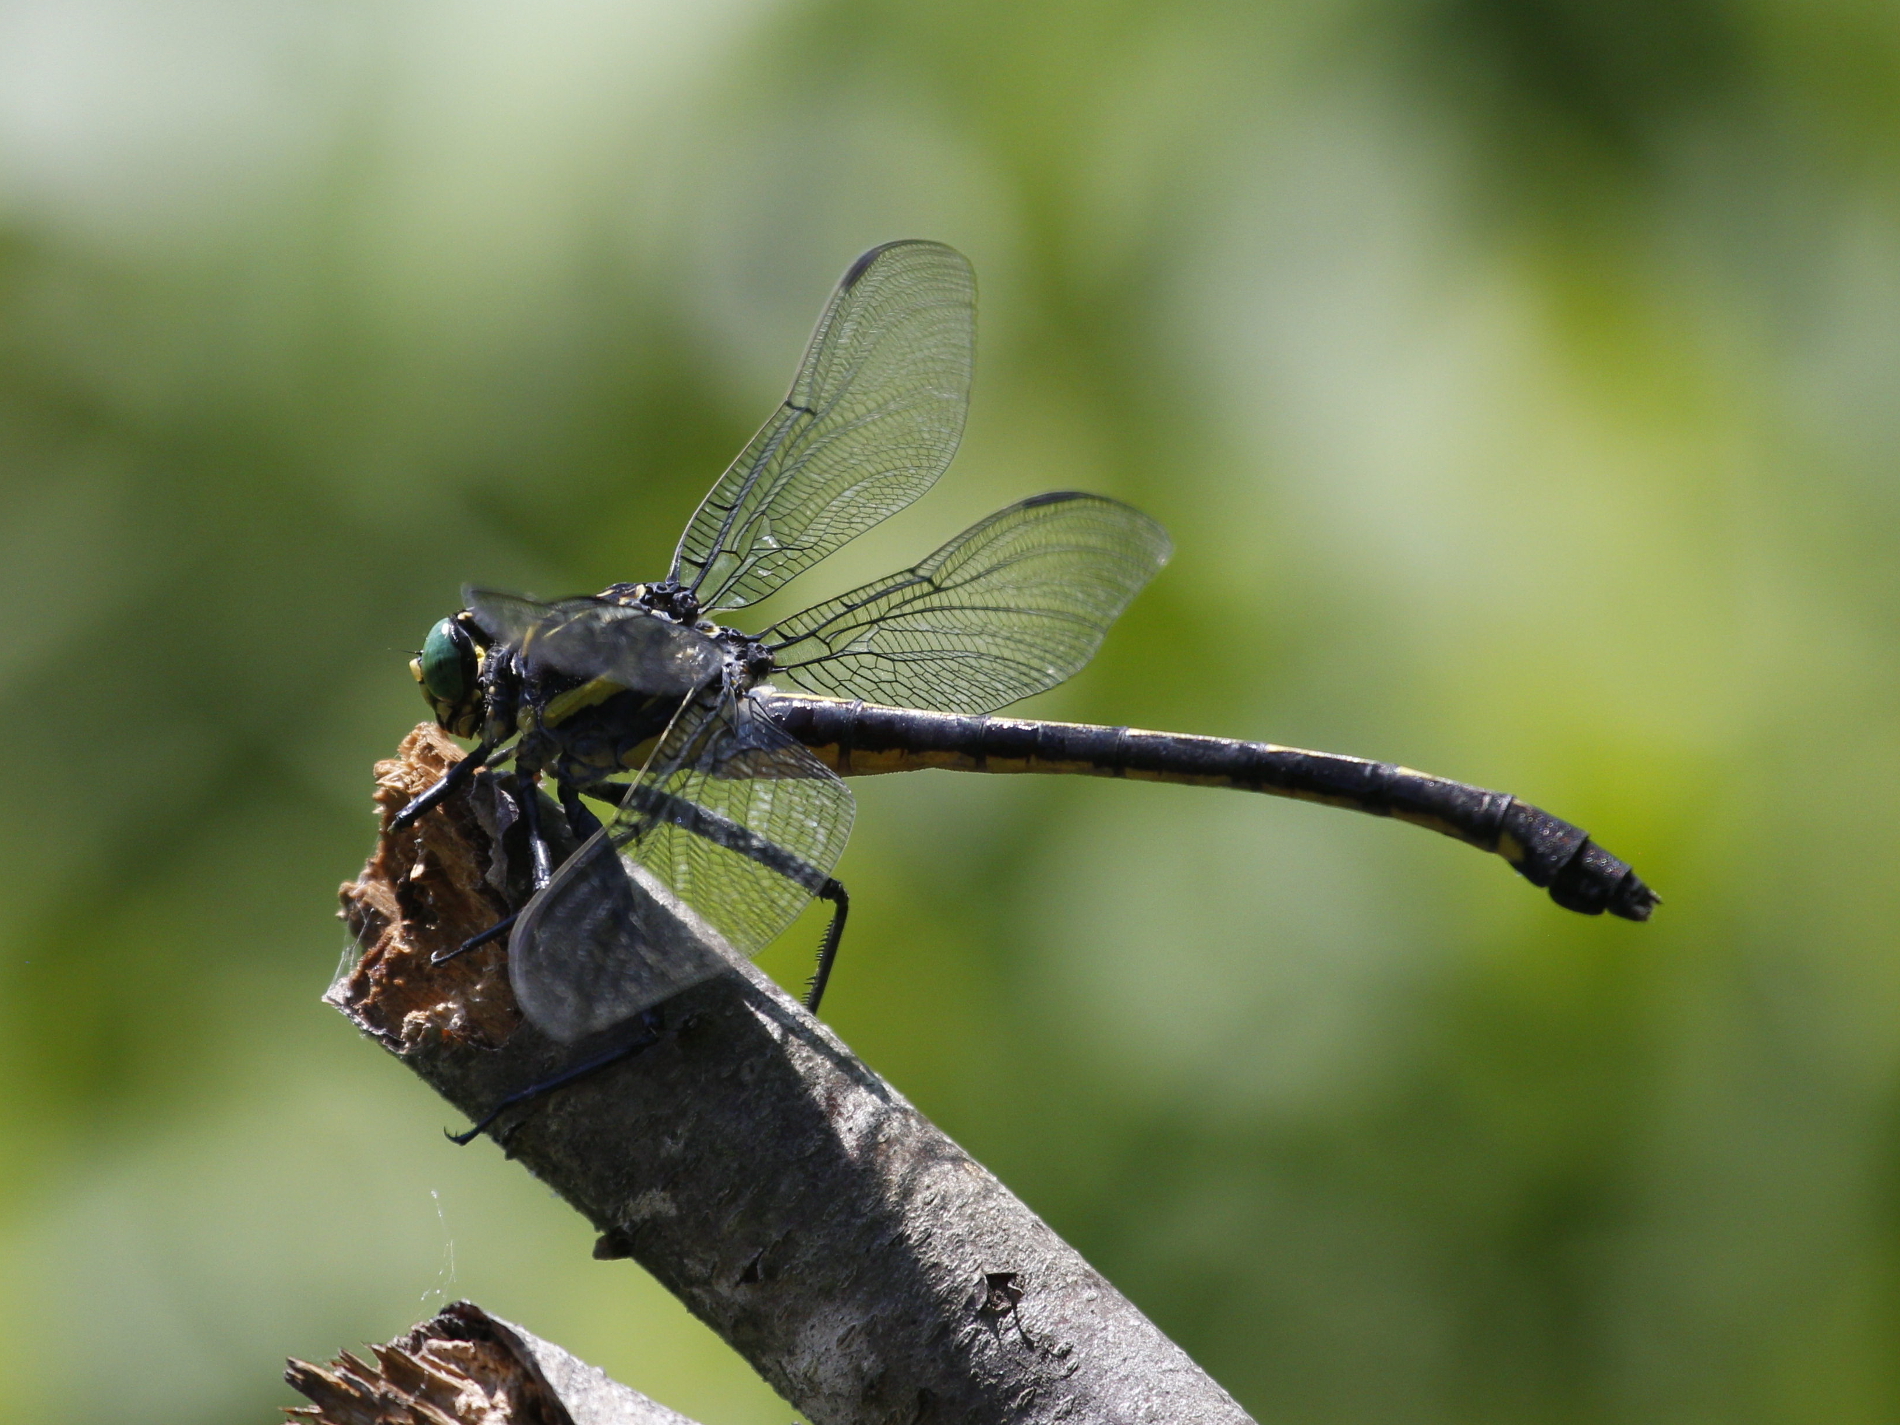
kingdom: Animalia
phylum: Arthropoda
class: Insecta
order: Odonata
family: Gomphidae
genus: Hagenius
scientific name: Hagenius brevistylus
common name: Dragonhunter
